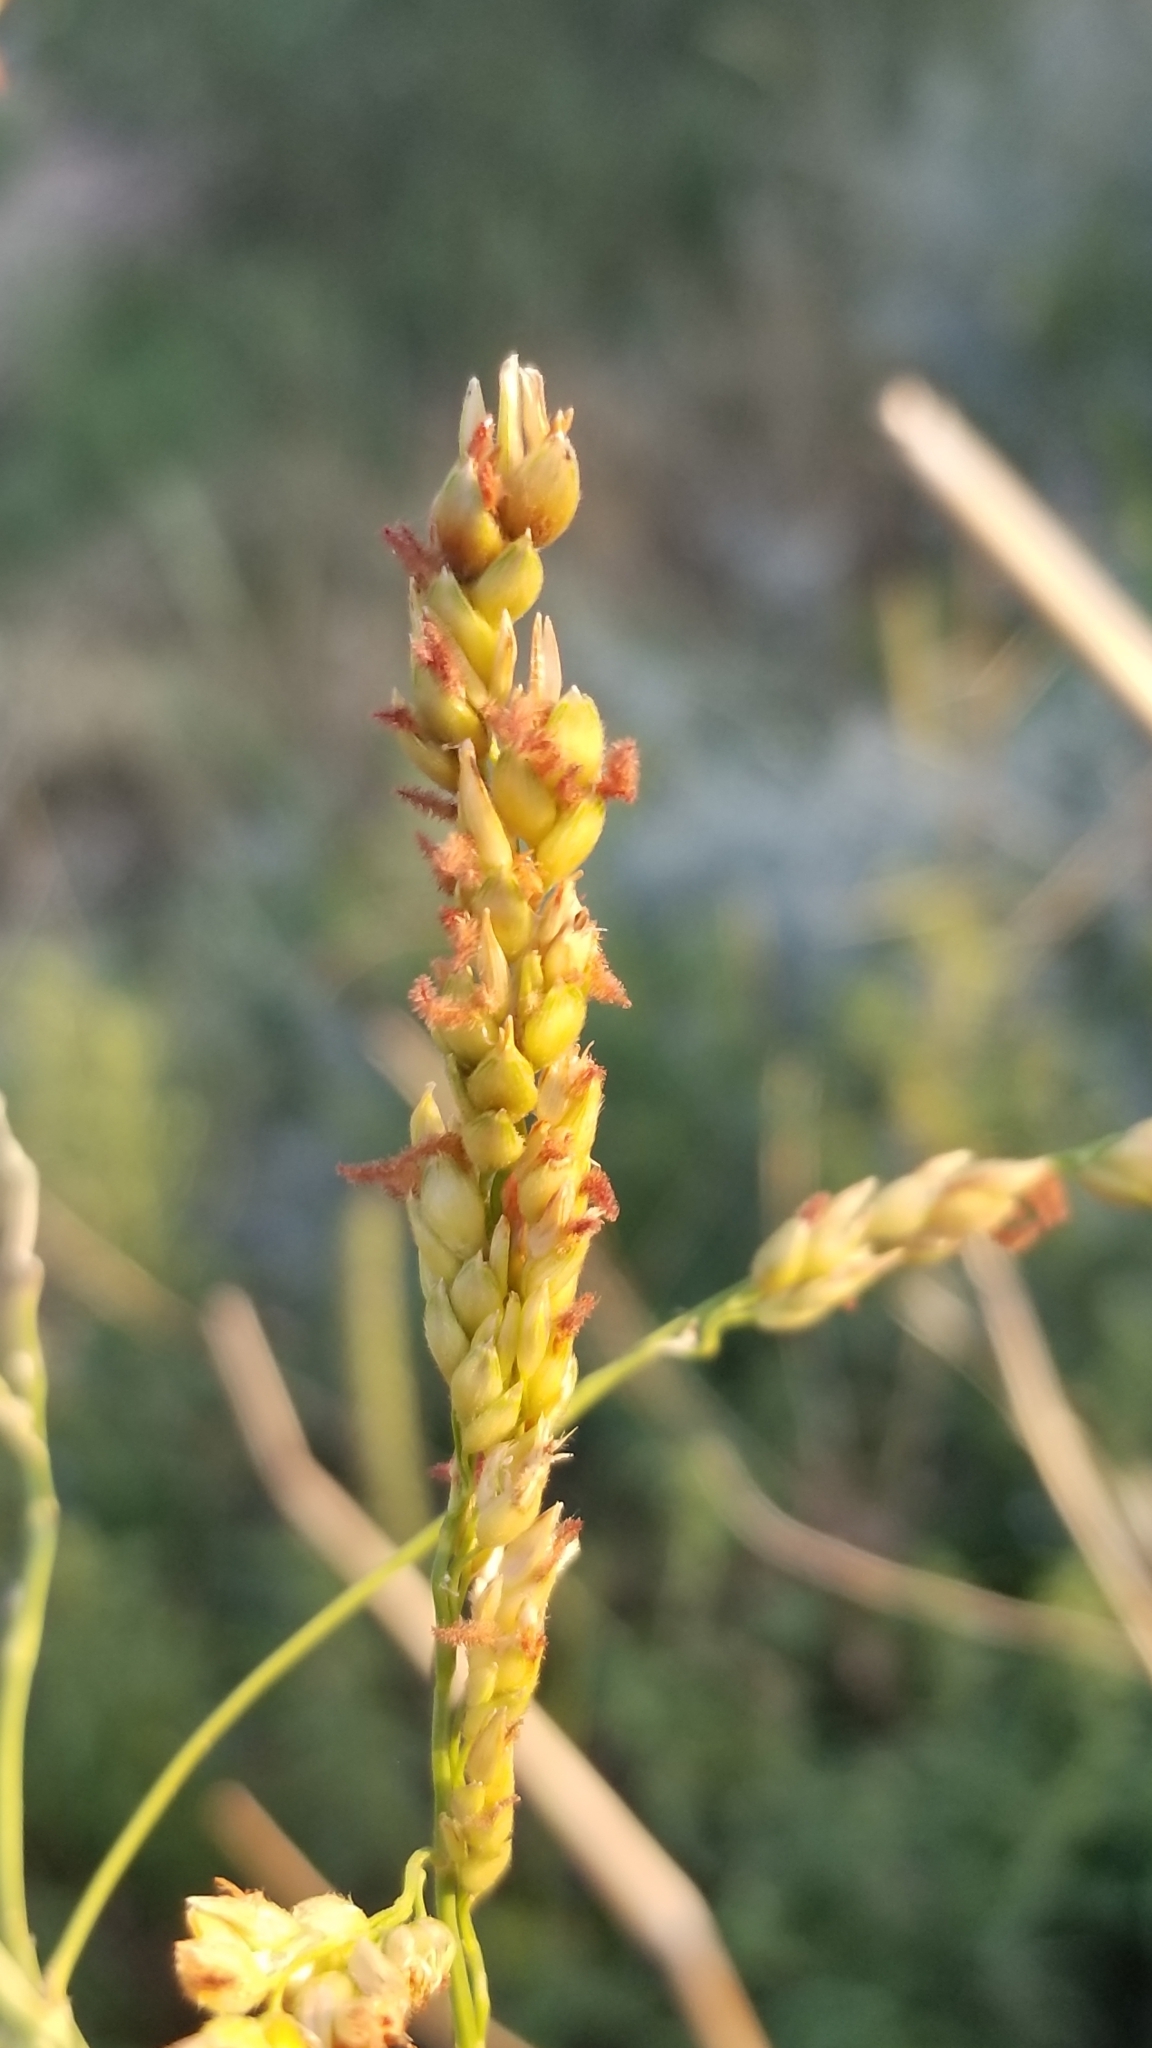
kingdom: Plantae
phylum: Tracheophyta
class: Liliopsida
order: Poales
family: Poaceae
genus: Sorghum
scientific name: Sorghum halepense
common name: Johnson-grass
